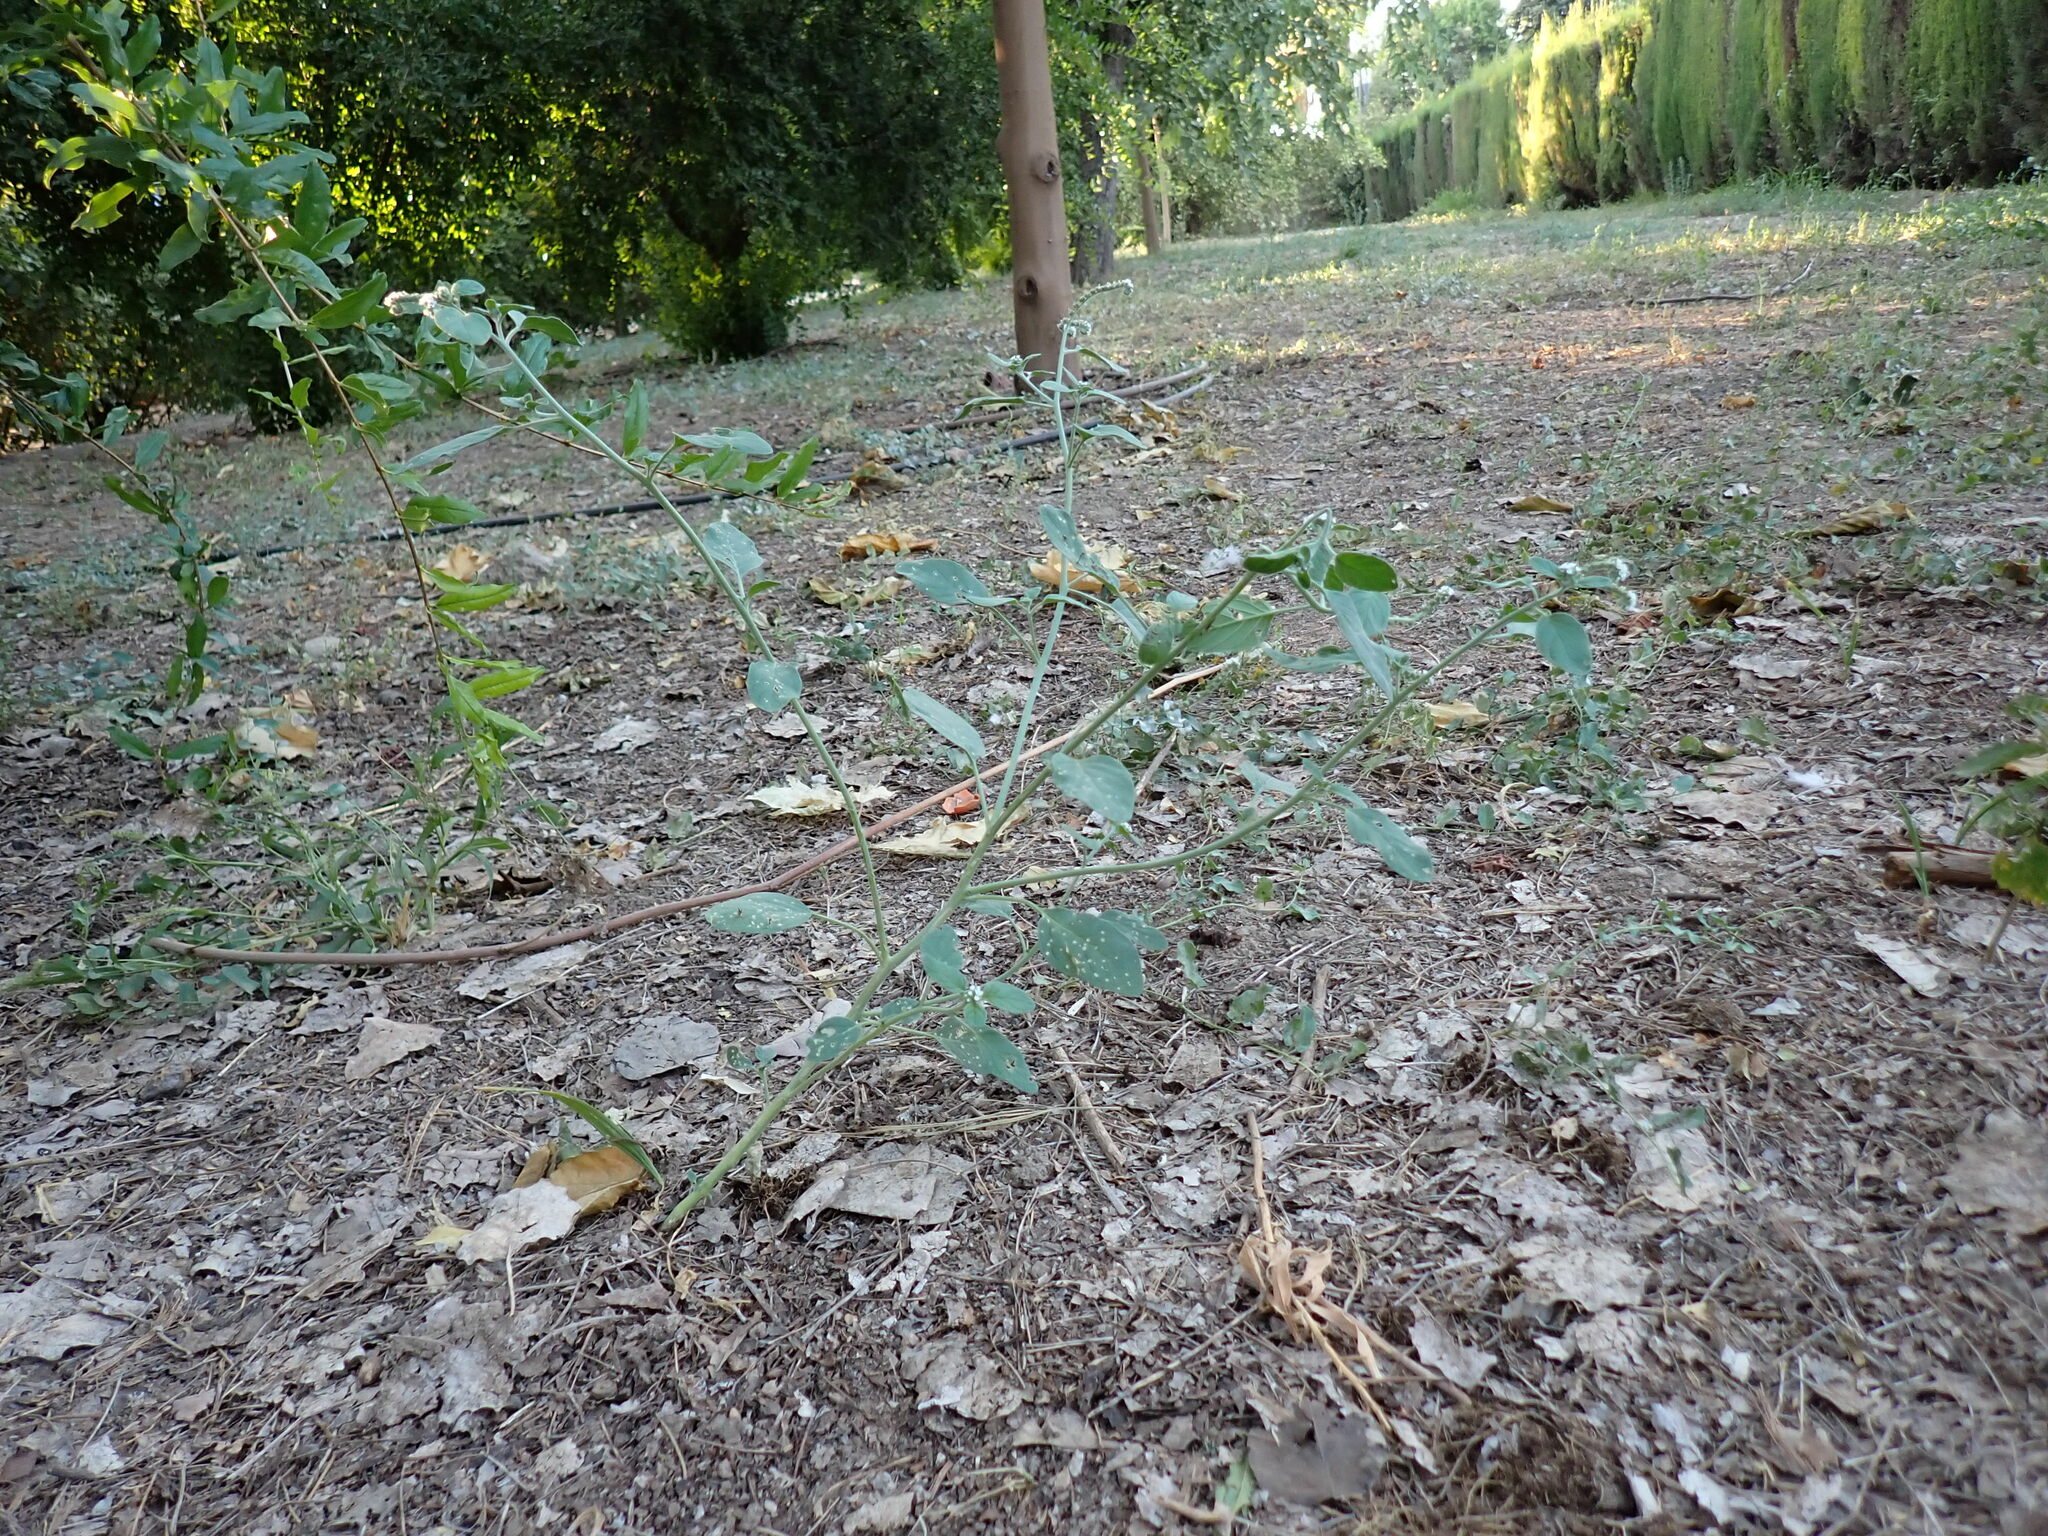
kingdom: Plantae
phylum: Tracheophyta
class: Magnoliopsida
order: Boraginales
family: Heliotropiaceae
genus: Heliotropium
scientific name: Heliotropium europaeum
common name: European heliotrope
